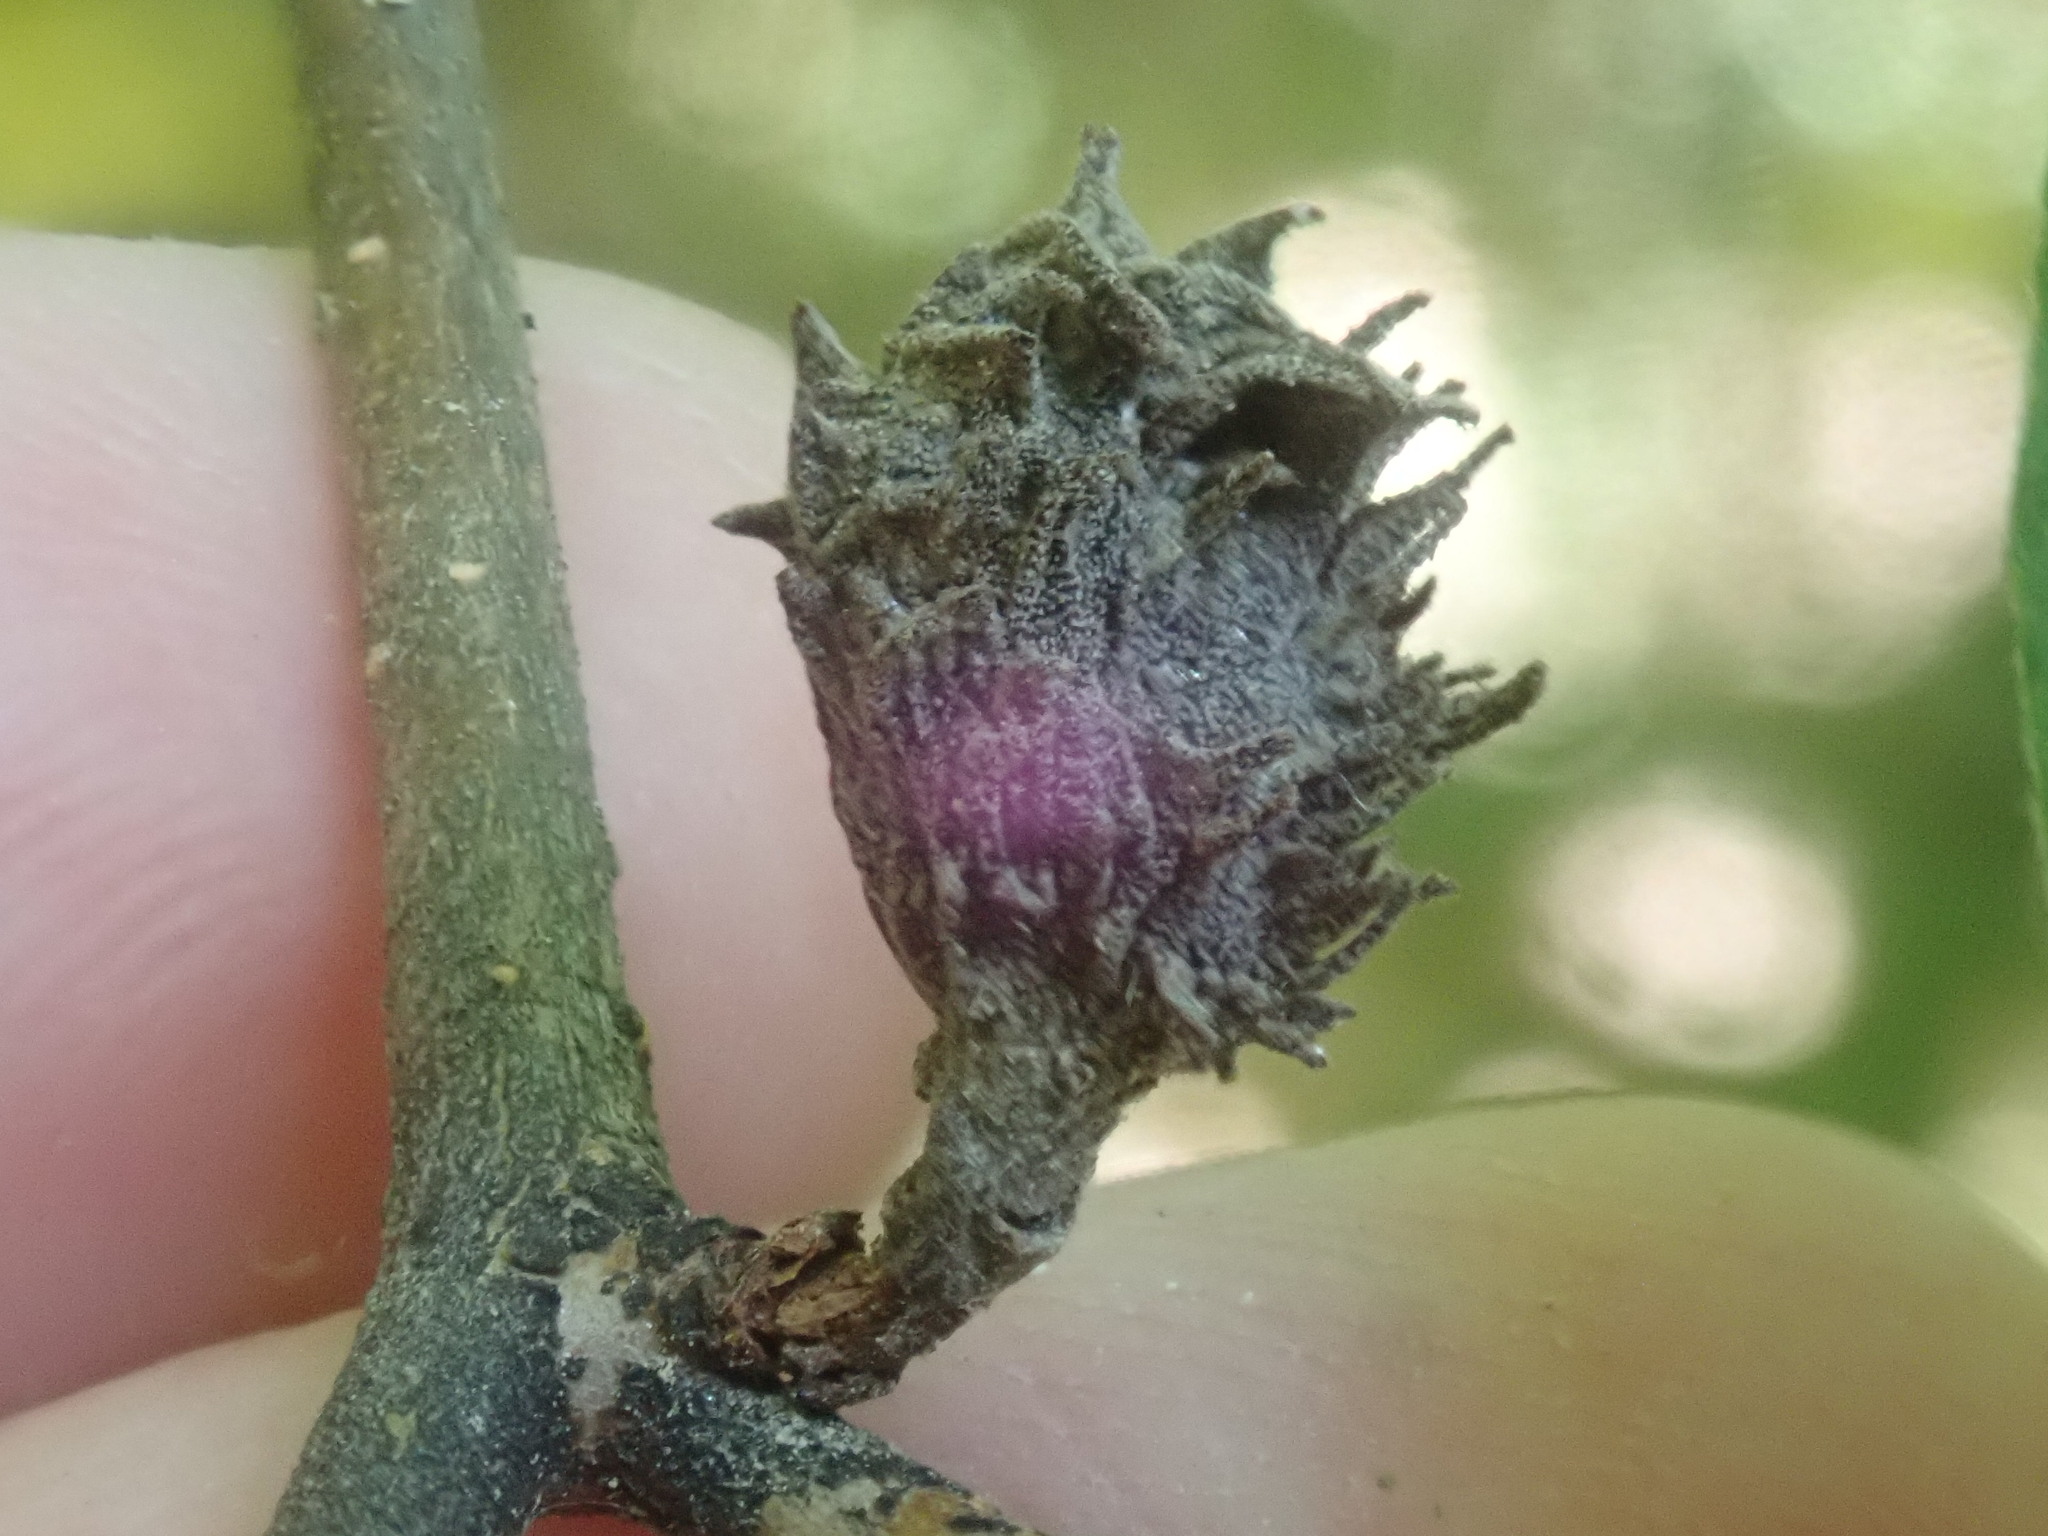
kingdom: Animalia
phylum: Arthropoda
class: Insecta
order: Hemiptera
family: Aphididae
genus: Hamamelistes
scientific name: Hamamelistes spinosus
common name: Witch hazel gall aphid
